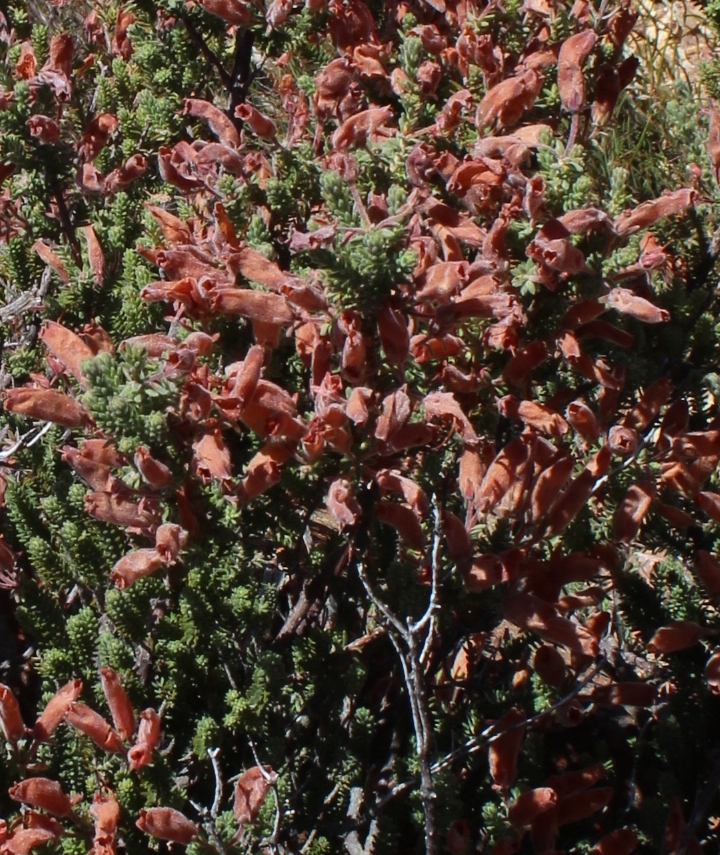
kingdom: Plantae
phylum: Tracheophyta
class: Magnoliopsida
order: Ericales
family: Ericaceae
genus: Erica
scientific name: Erica tumida
